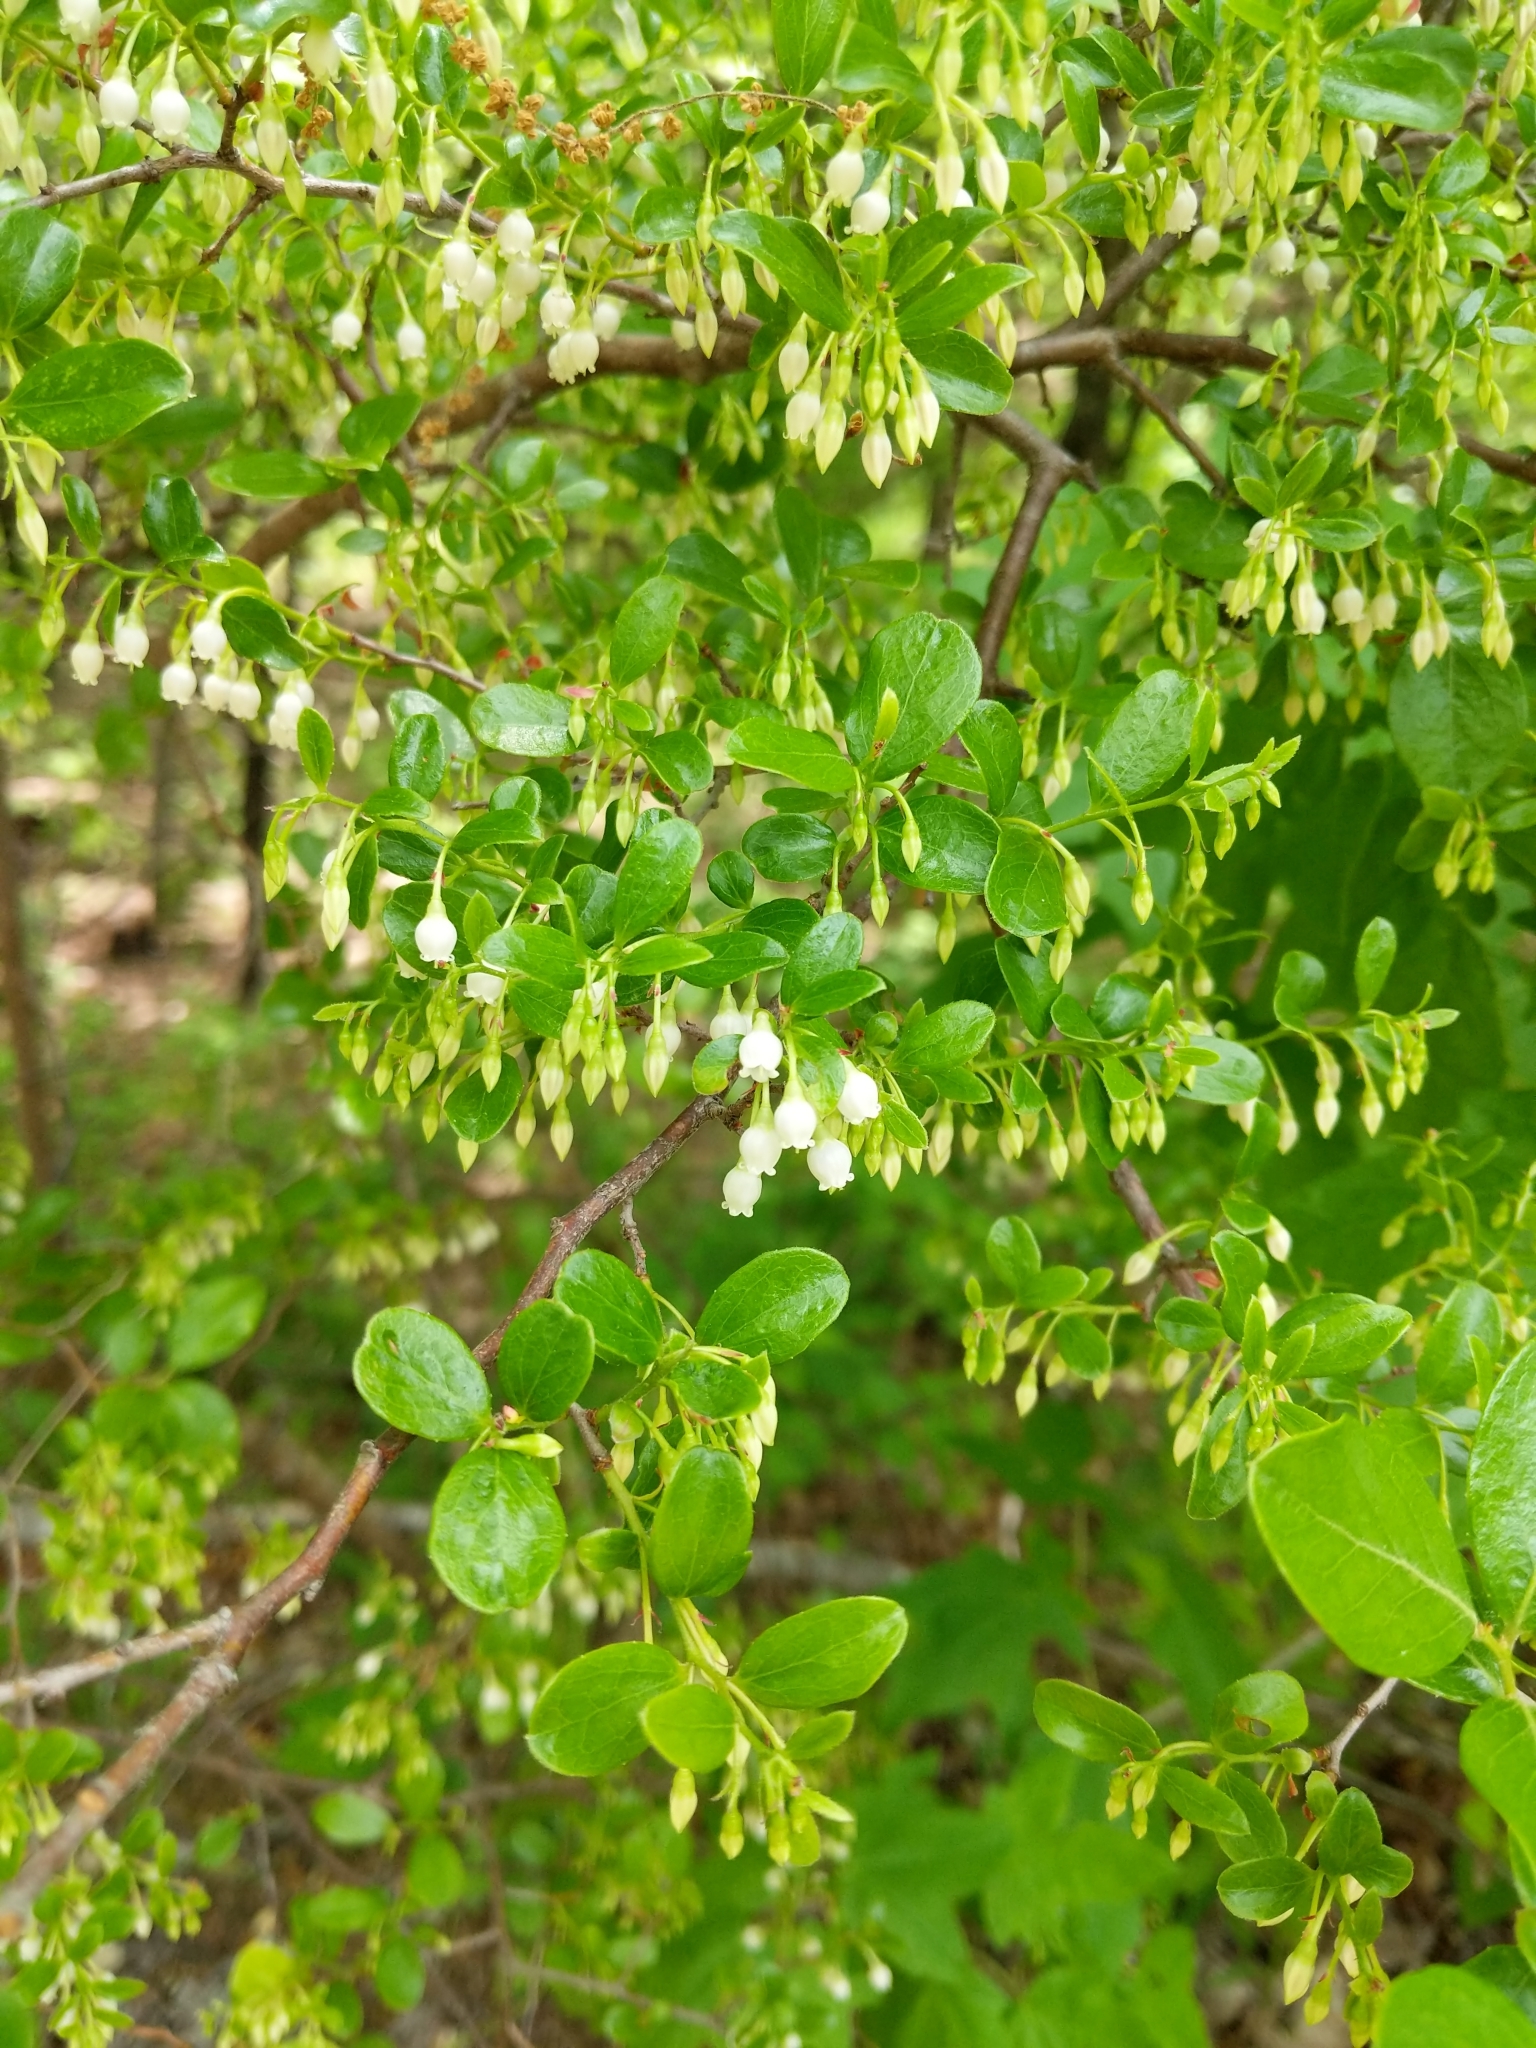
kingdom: Plantae
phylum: Tracheophyta
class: Magnoliopsida
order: Ericales
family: Ericaceae
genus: Vaccinium
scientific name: Vaccinium arboreum
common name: Farkleberry
